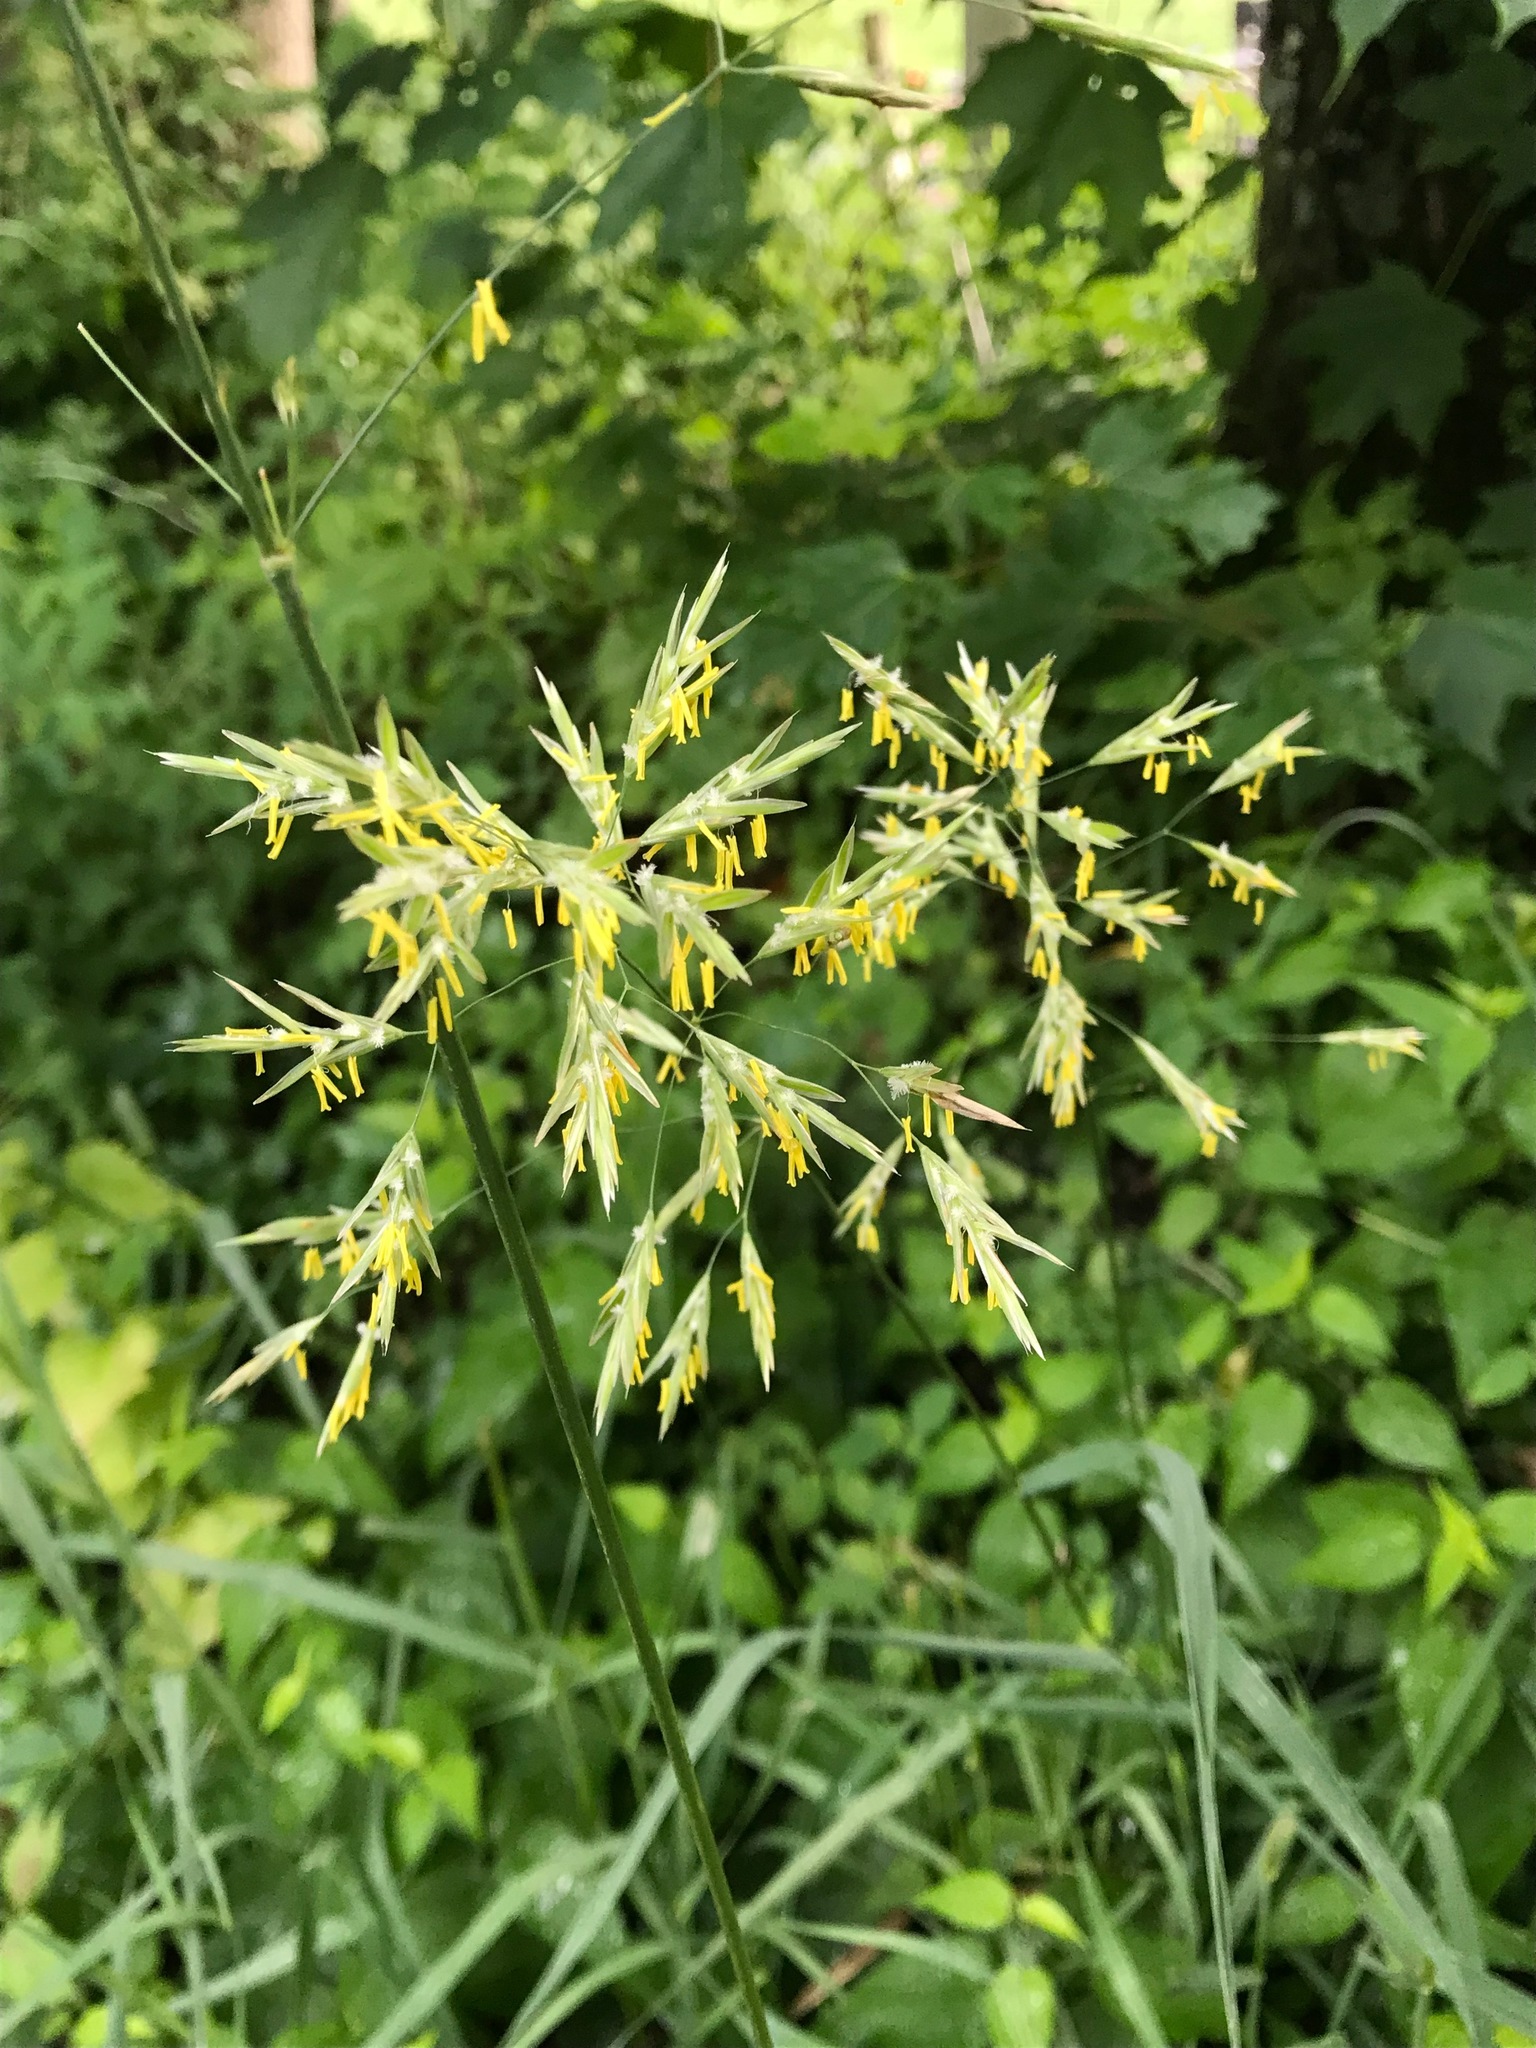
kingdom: Plantae
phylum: Tracheophyta
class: Liliopsida
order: Poales
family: Poaceae
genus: Bromus
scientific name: Bromus inermis
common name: Smooth brome
